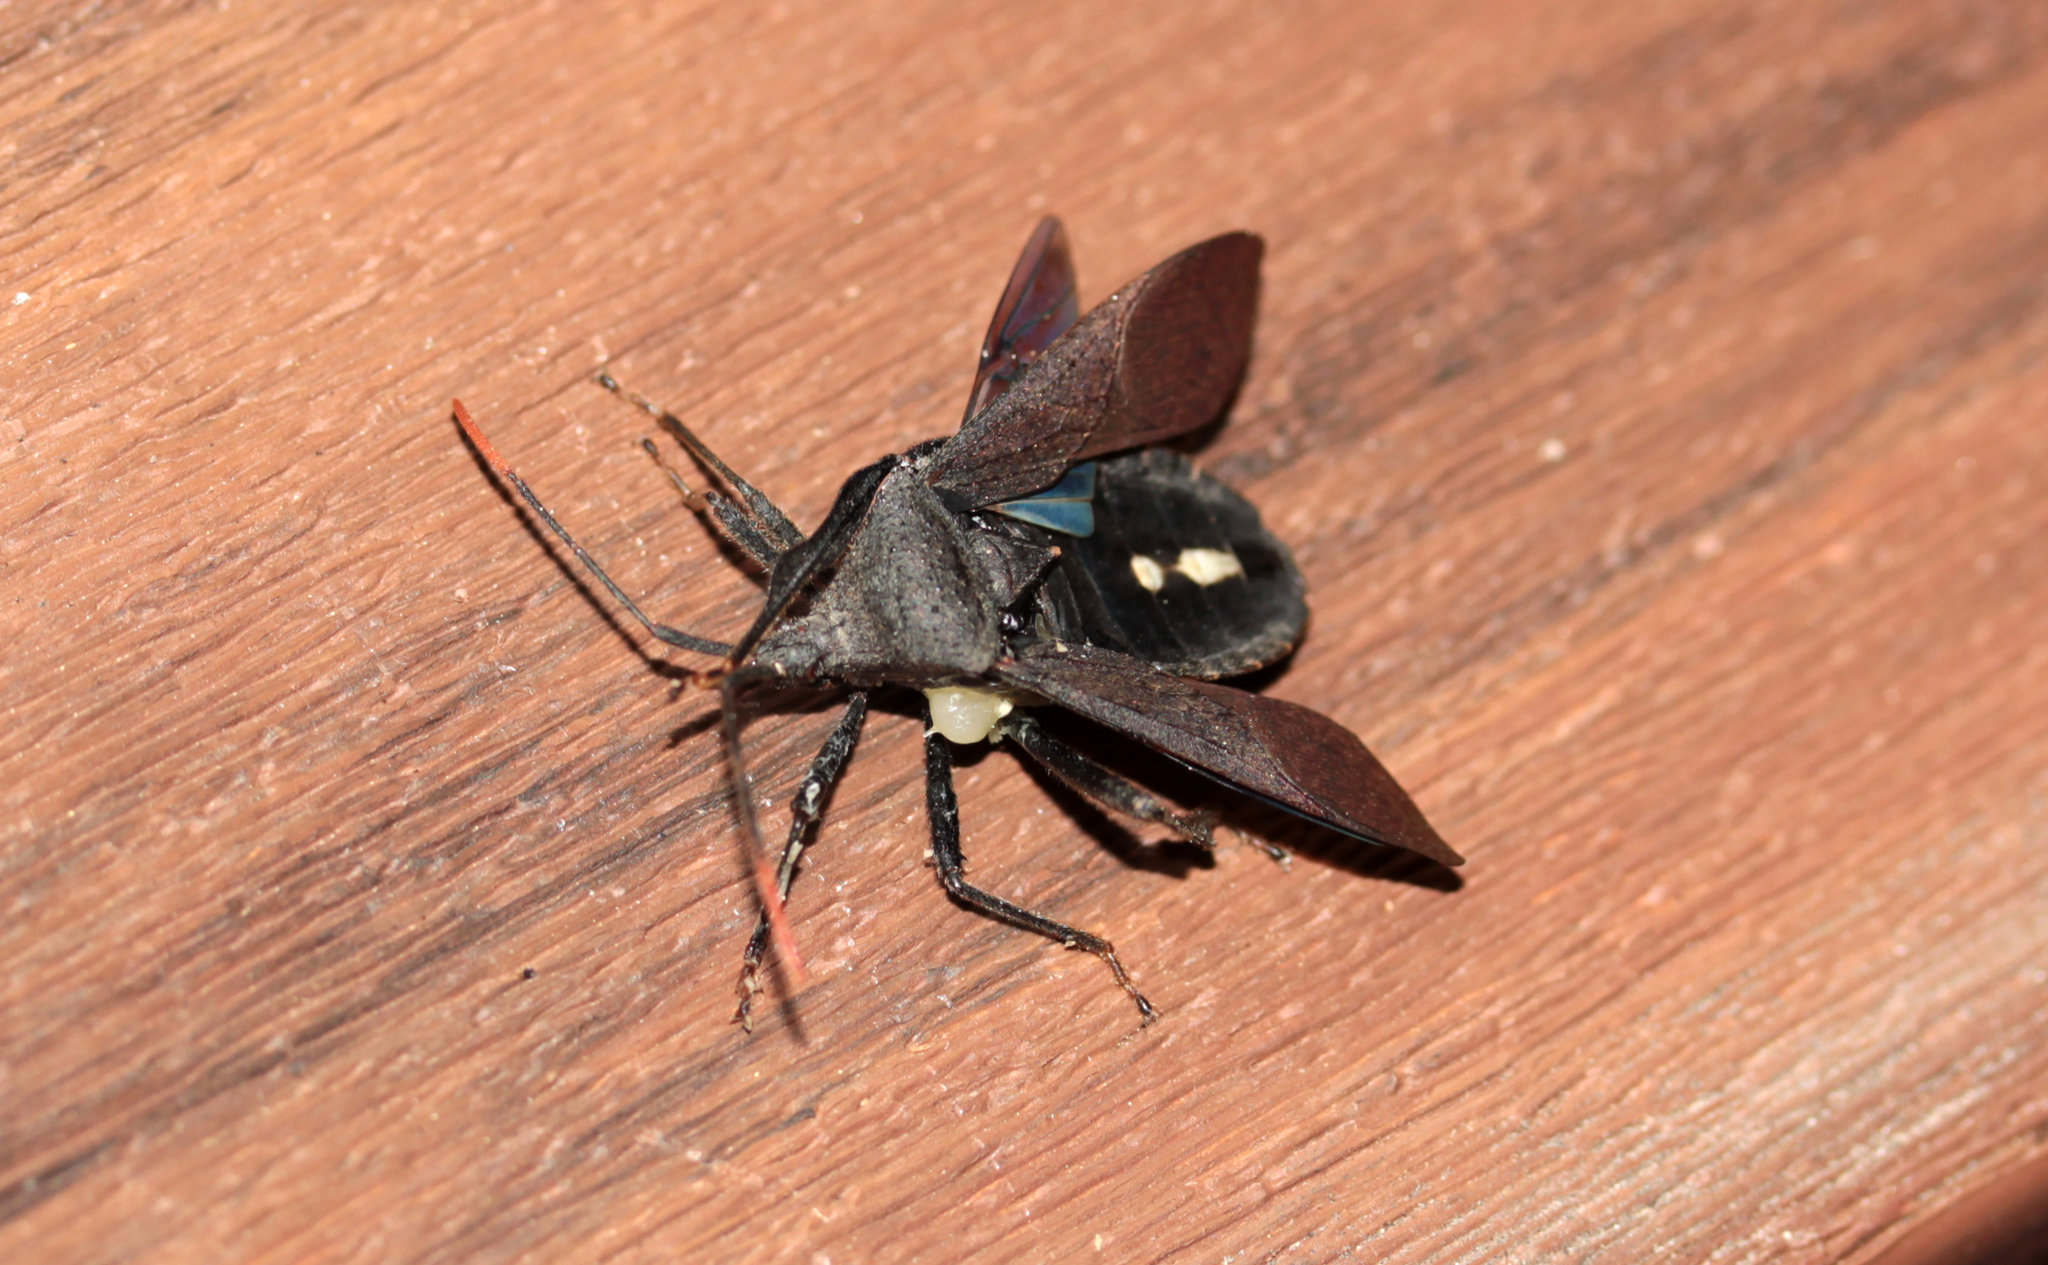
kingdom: Animalia
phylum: Arthropoda
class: Insecta
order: Hemiptera
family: Coreidae
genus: Acanthocephala
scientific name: Acanthocephala terminalis
